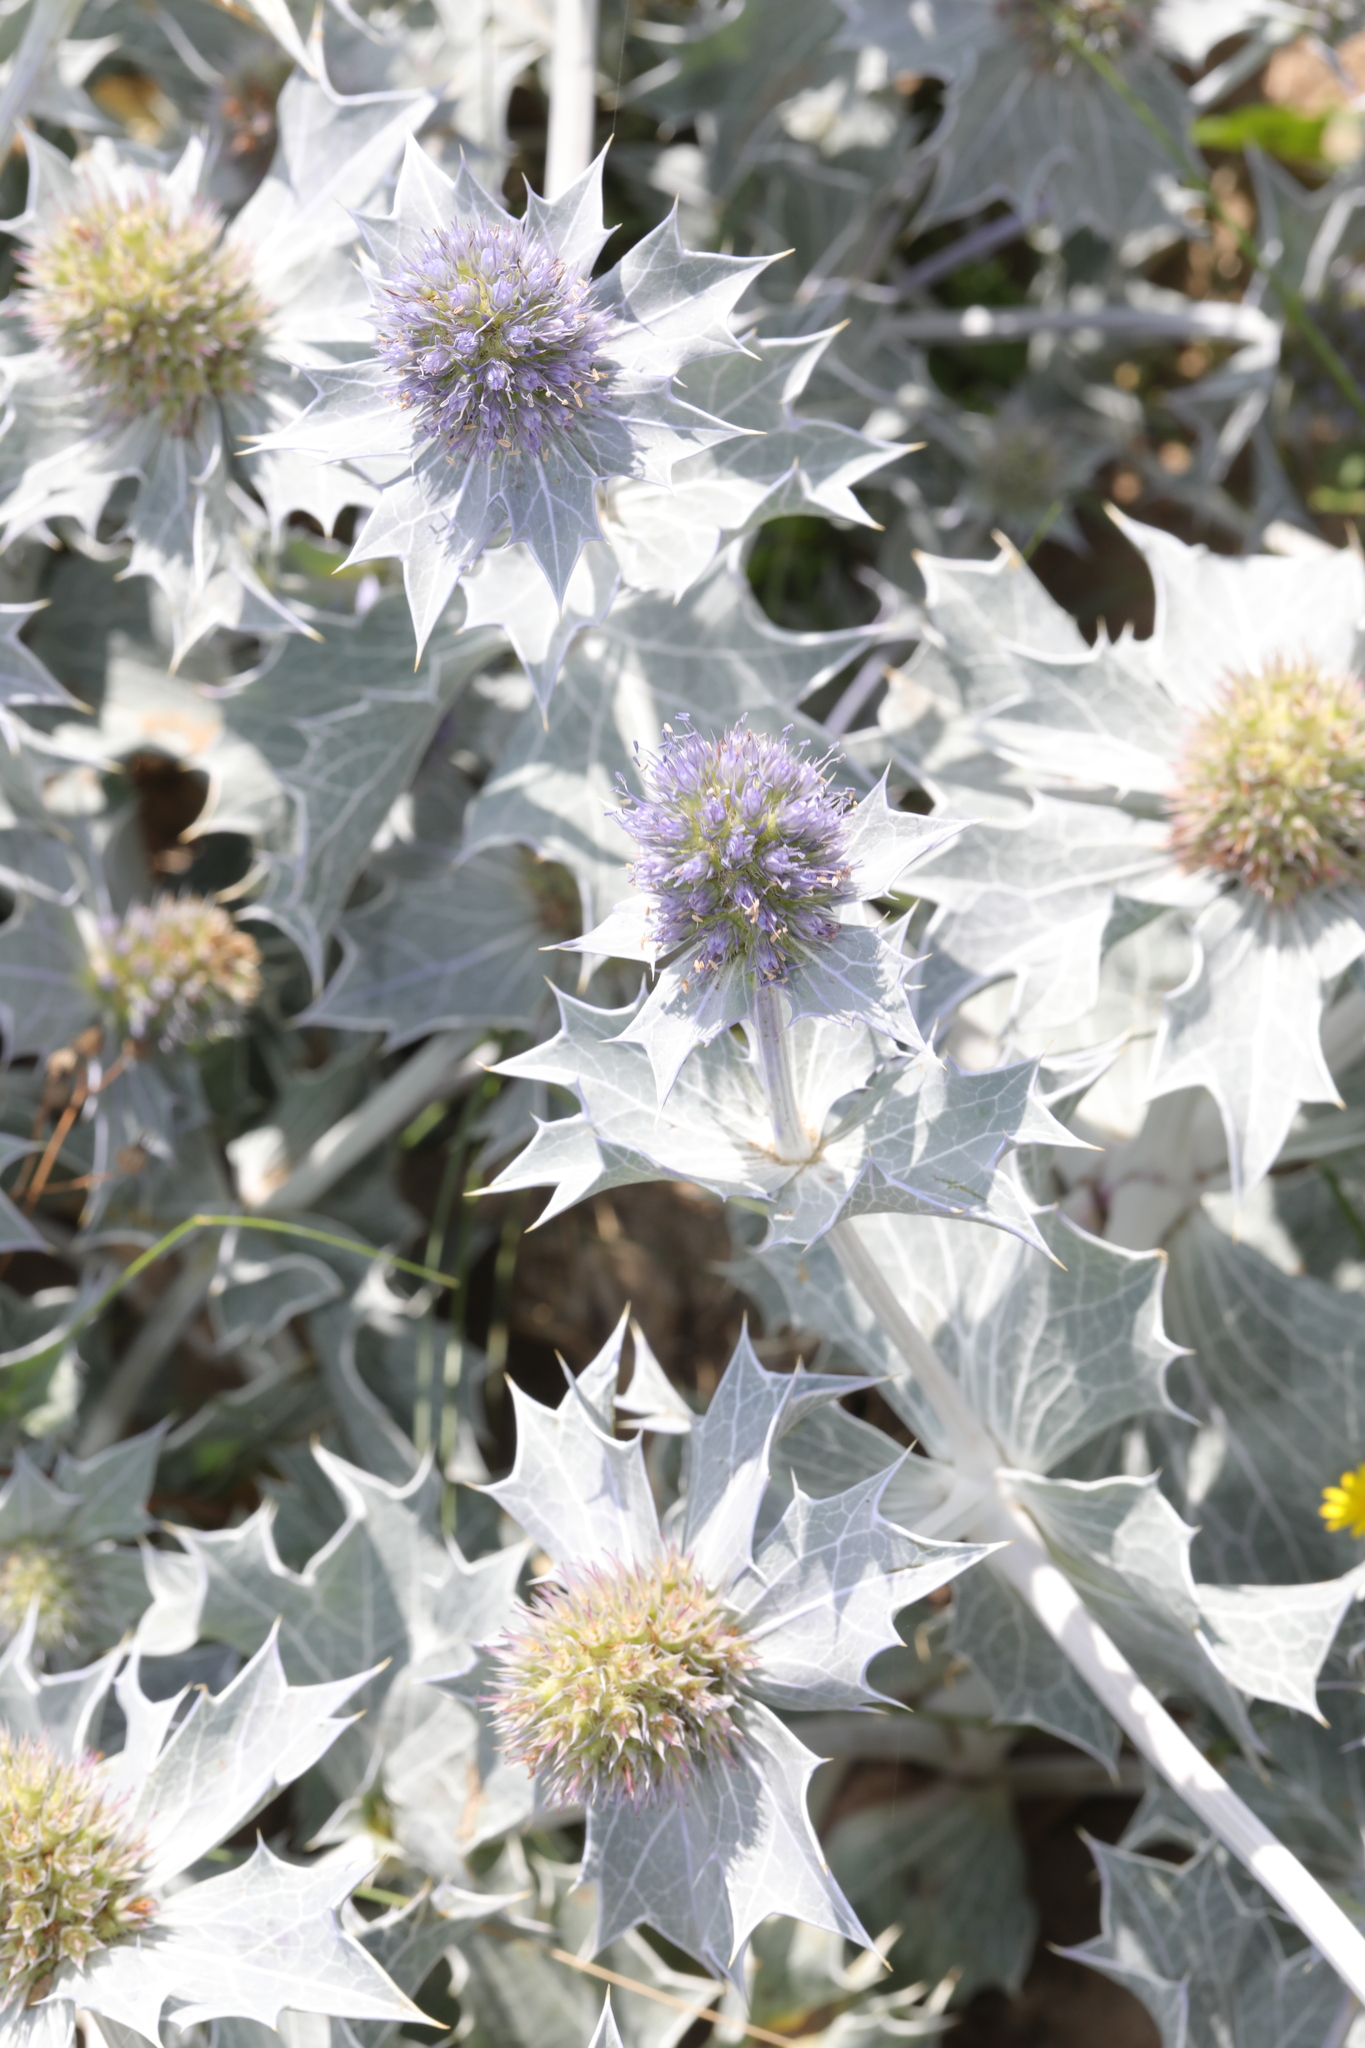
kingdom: Plantae
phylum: Tracheophyta
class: Magnoliopsida
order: Apiales
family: Apiaceae
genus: Eryngium
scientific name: Eryngium maritimum
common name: Sea-holly
